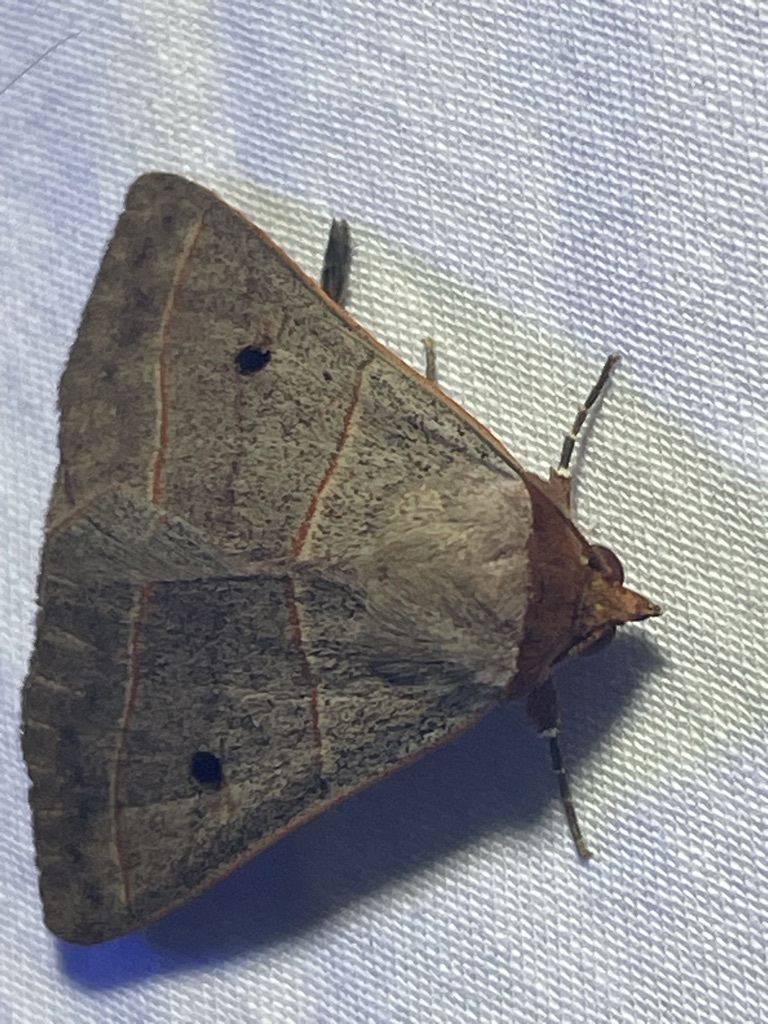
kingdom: Animalia
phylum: Arthropoda
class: Insecta
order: Lepidoptera
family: Erebidae
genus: Panopoda
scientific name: Panopoda rufimargo
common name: Red-lined panopoda moth
